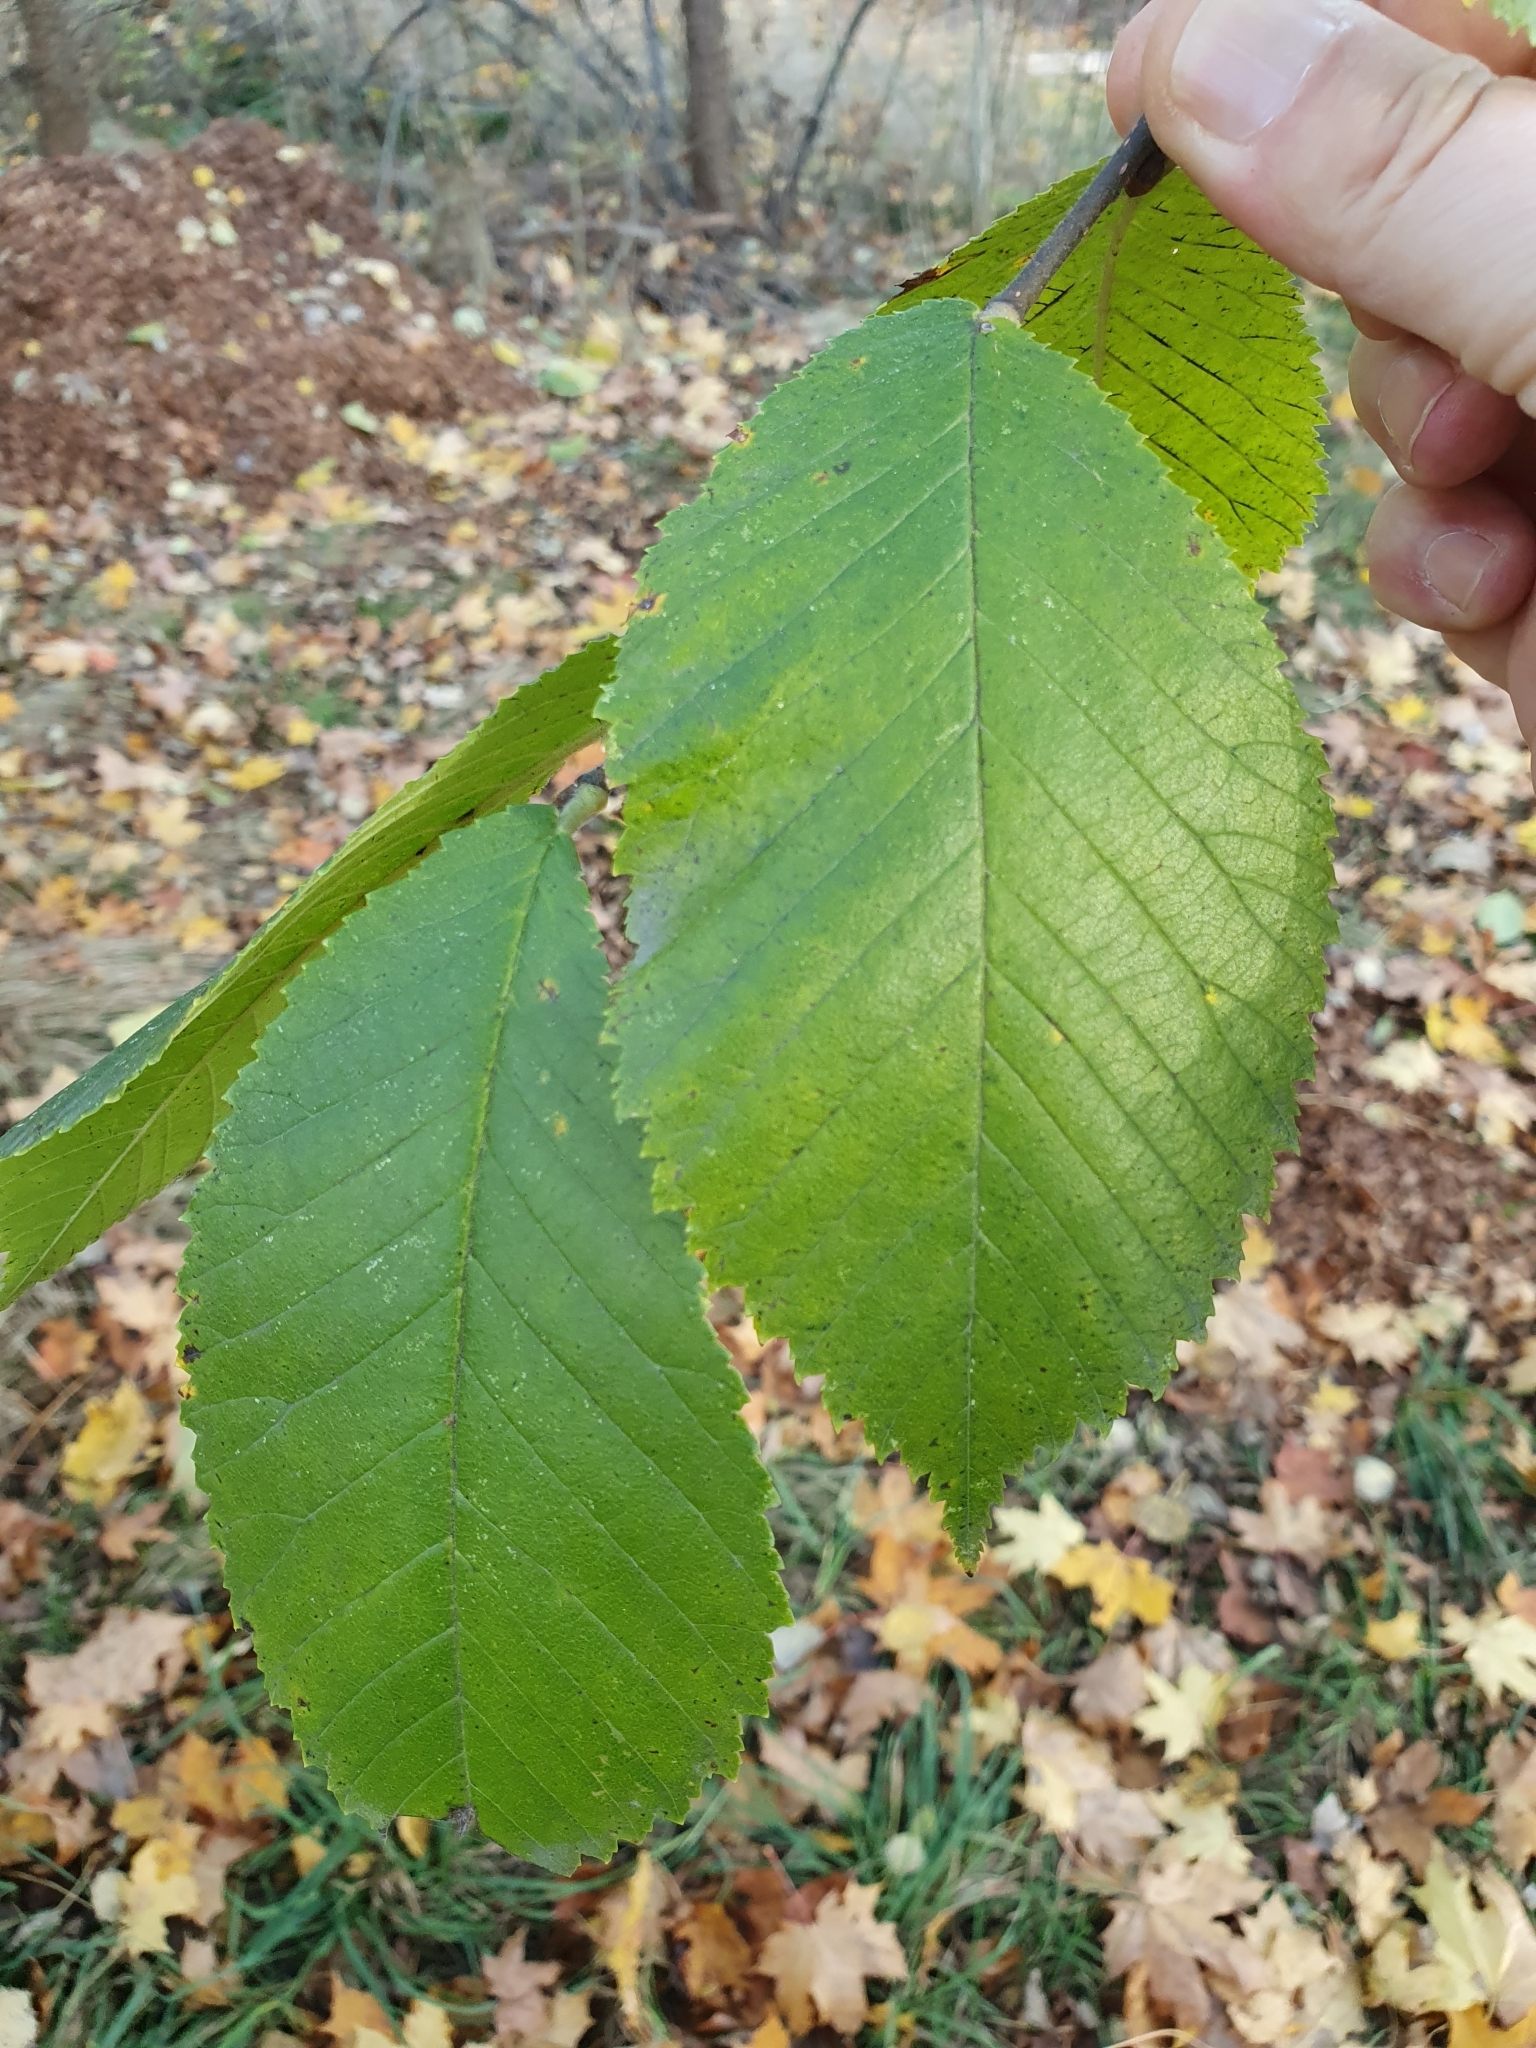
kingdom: Plantae
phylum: Tracheophyta
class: Magnoliopsida
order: Rosales
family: Ulmaceae
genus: Ulmus
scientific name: Ulmus glabra
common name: Wych elm
